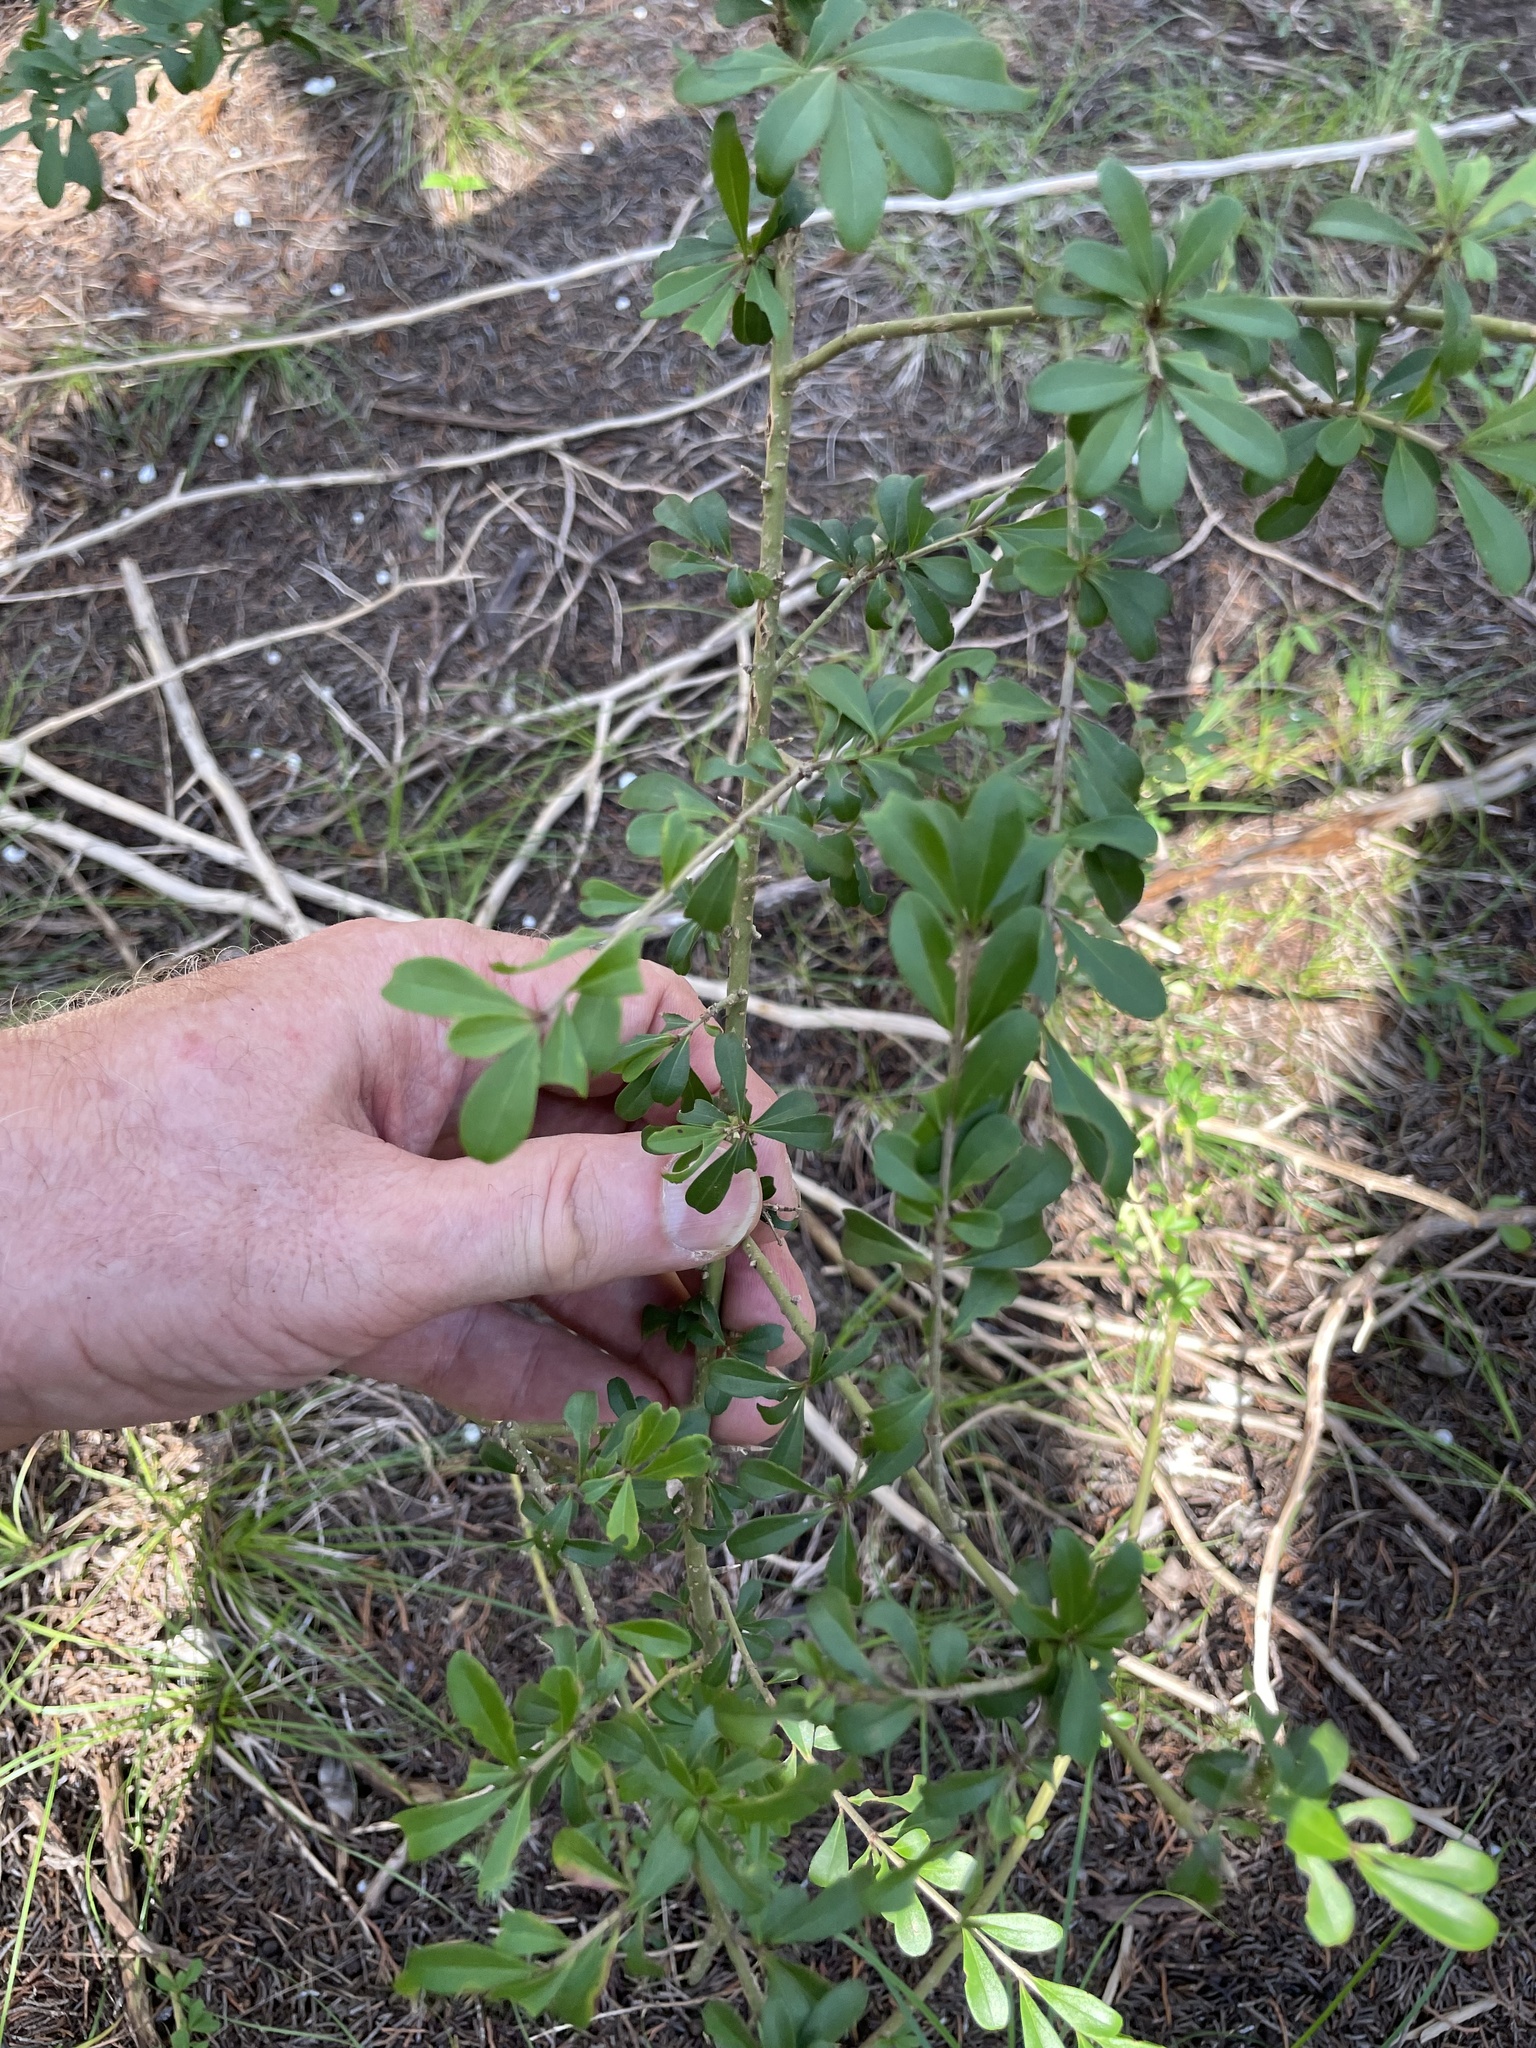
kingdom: Plantae
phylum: Tracheophyta
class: Magnoliopsida
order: Lamiales
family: Oleaceae
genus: Ligustrum
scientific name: Ligustrum quihoui
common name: Waxyleaf privet
